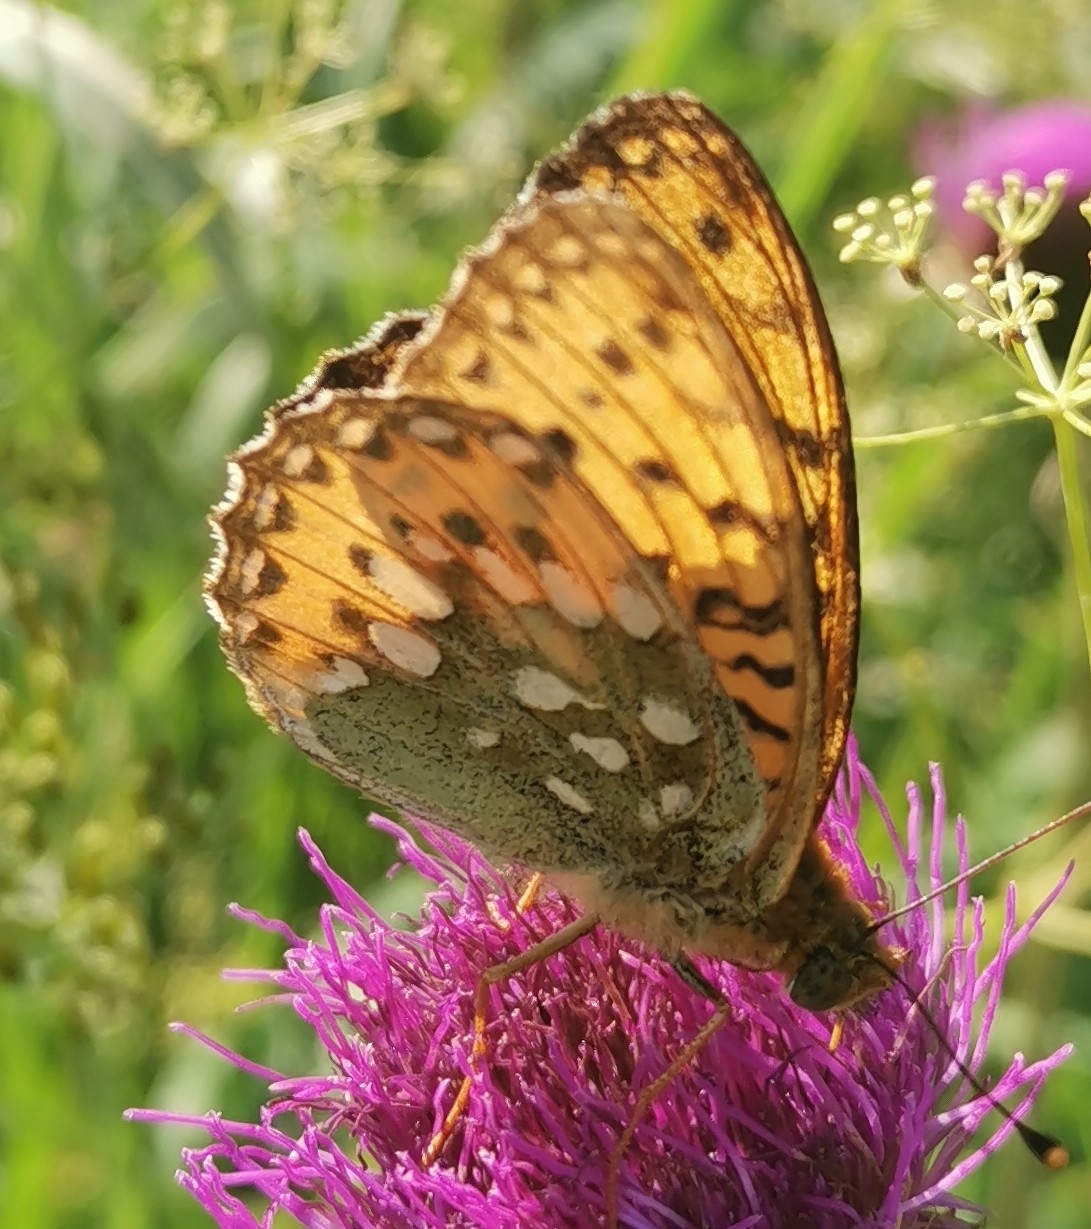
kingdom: Animalia
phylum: Arthropoda
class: Insecta
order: Lepidoptera
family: Nymphalidae
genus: Speyeria
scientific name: Speyeria aglaja
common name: Dark green fritillary
